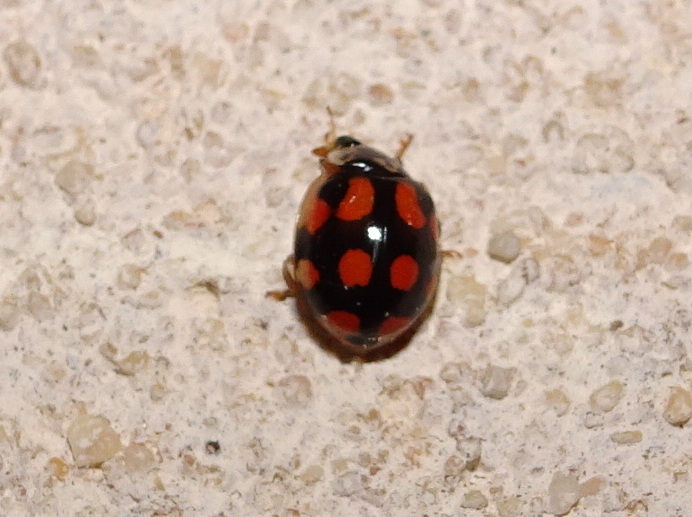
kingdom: Animalia
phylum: Arthropoda
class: Insecta
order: Coleoptera
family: Coccinellidae
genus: Adalia
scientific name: Adalia decempunctata
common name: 10-spot ladybird
